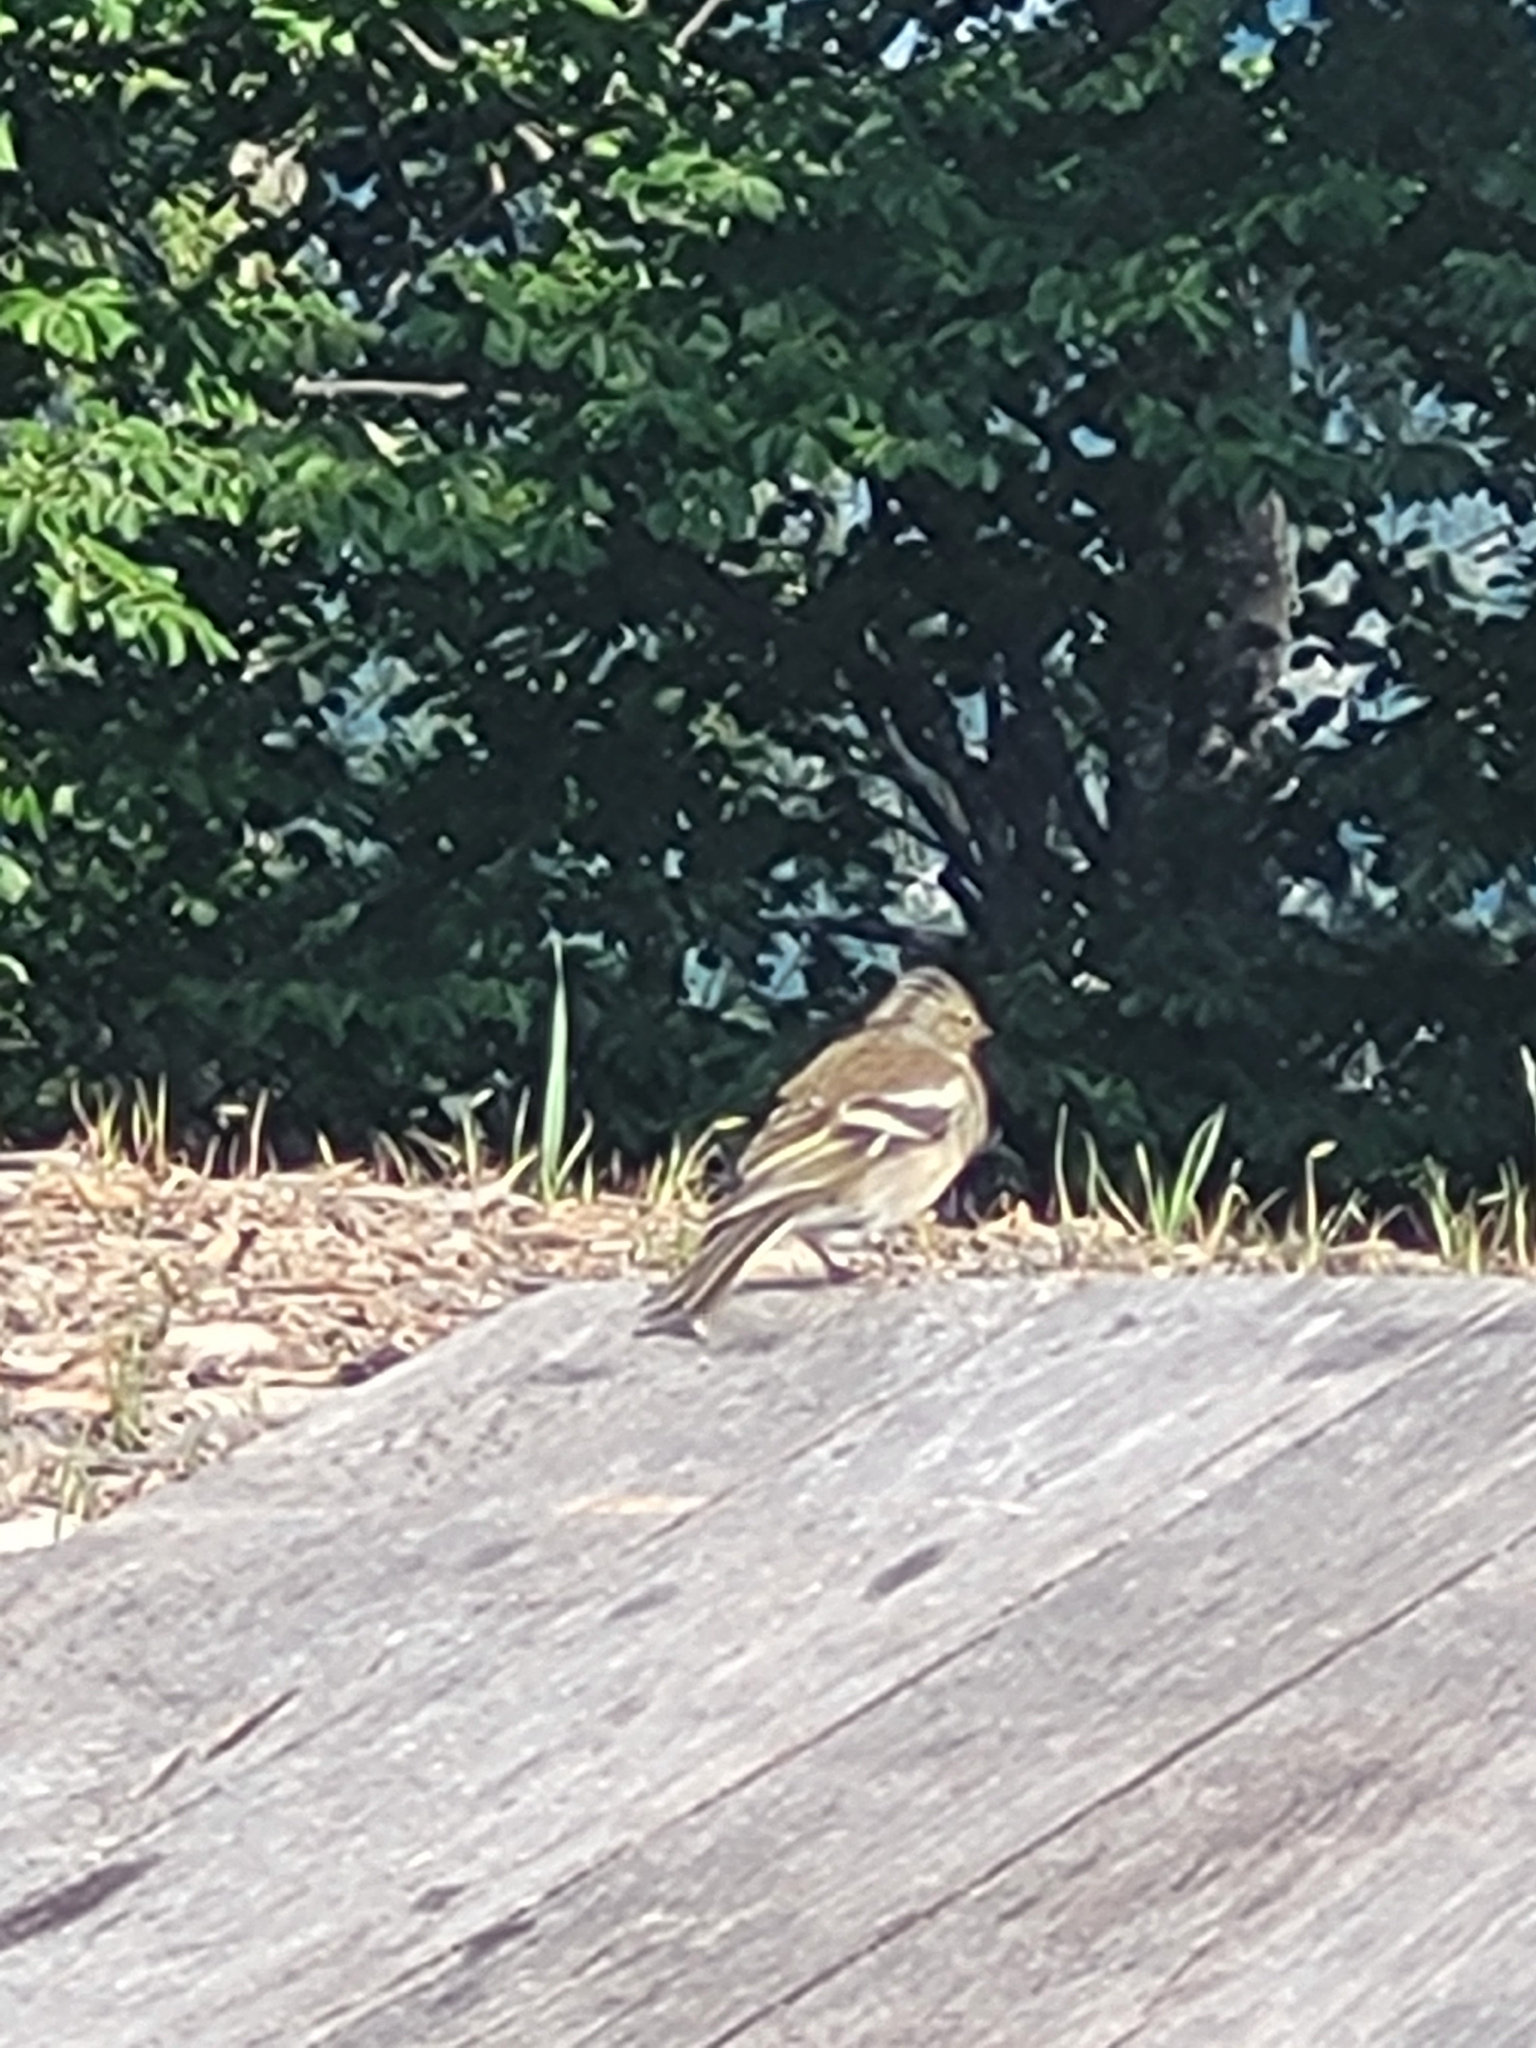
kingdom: Animalia
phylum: Chordata
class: Aves
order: Passeriformes
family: Fringillidae
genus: Fringilla
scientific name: Fringilla coelebs
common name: Common chaffinch
